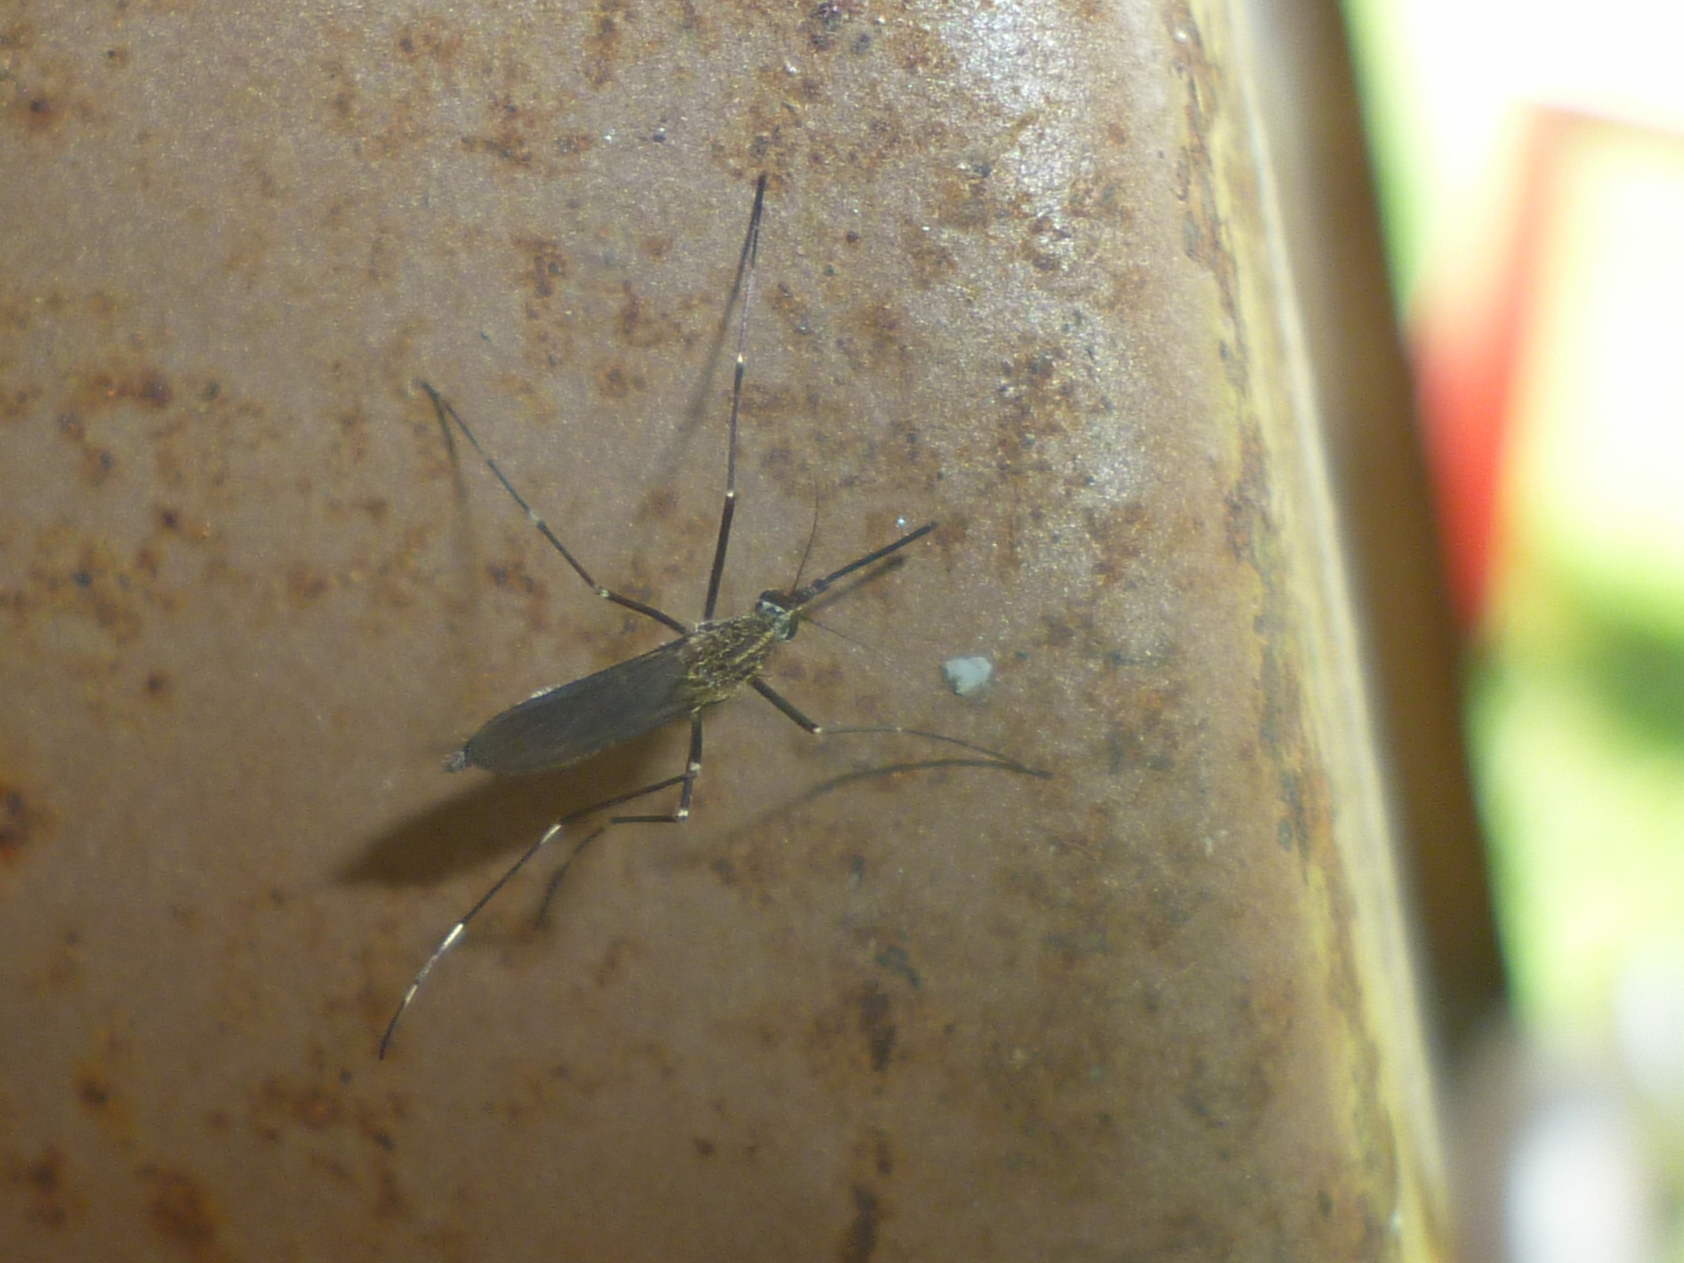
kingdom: Animalia
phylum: Arthropoda
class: Insecta
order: Diptera
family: Culicidae
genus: Aedes
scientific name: Aedes japonicus
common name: Asian bush mosquito
